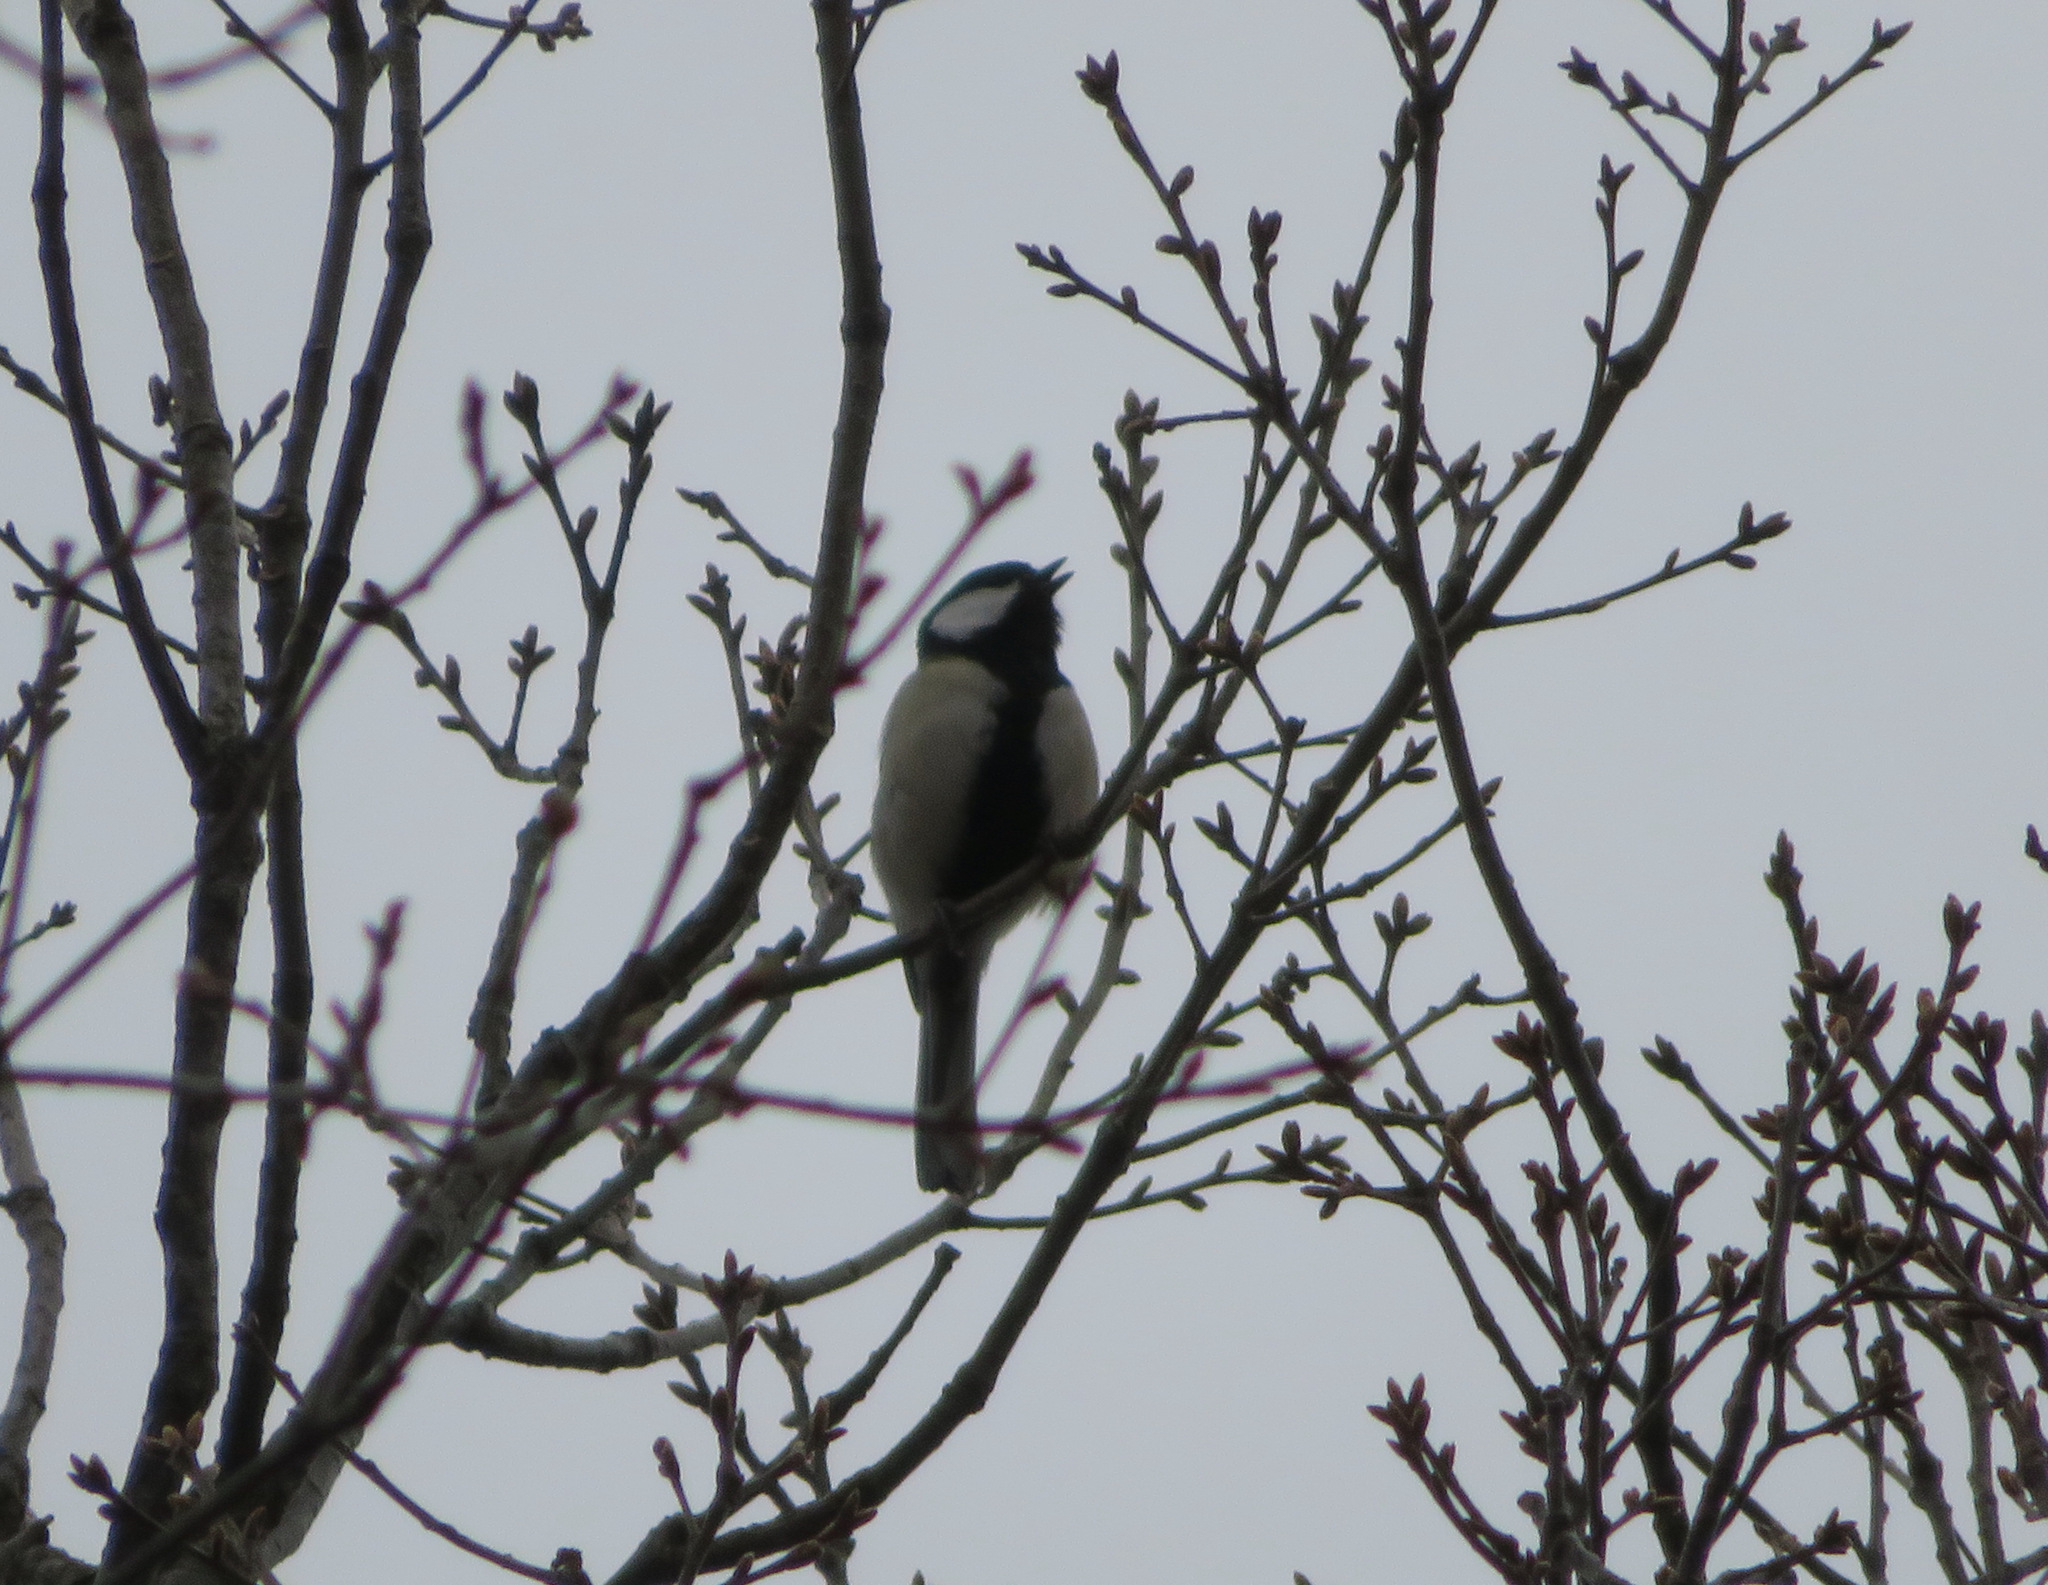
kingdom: Animalia
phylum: Chordata
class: Aves
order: Passeriformes
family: Paridae
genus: Parus
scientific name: Parus minor
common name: Japanese tit
